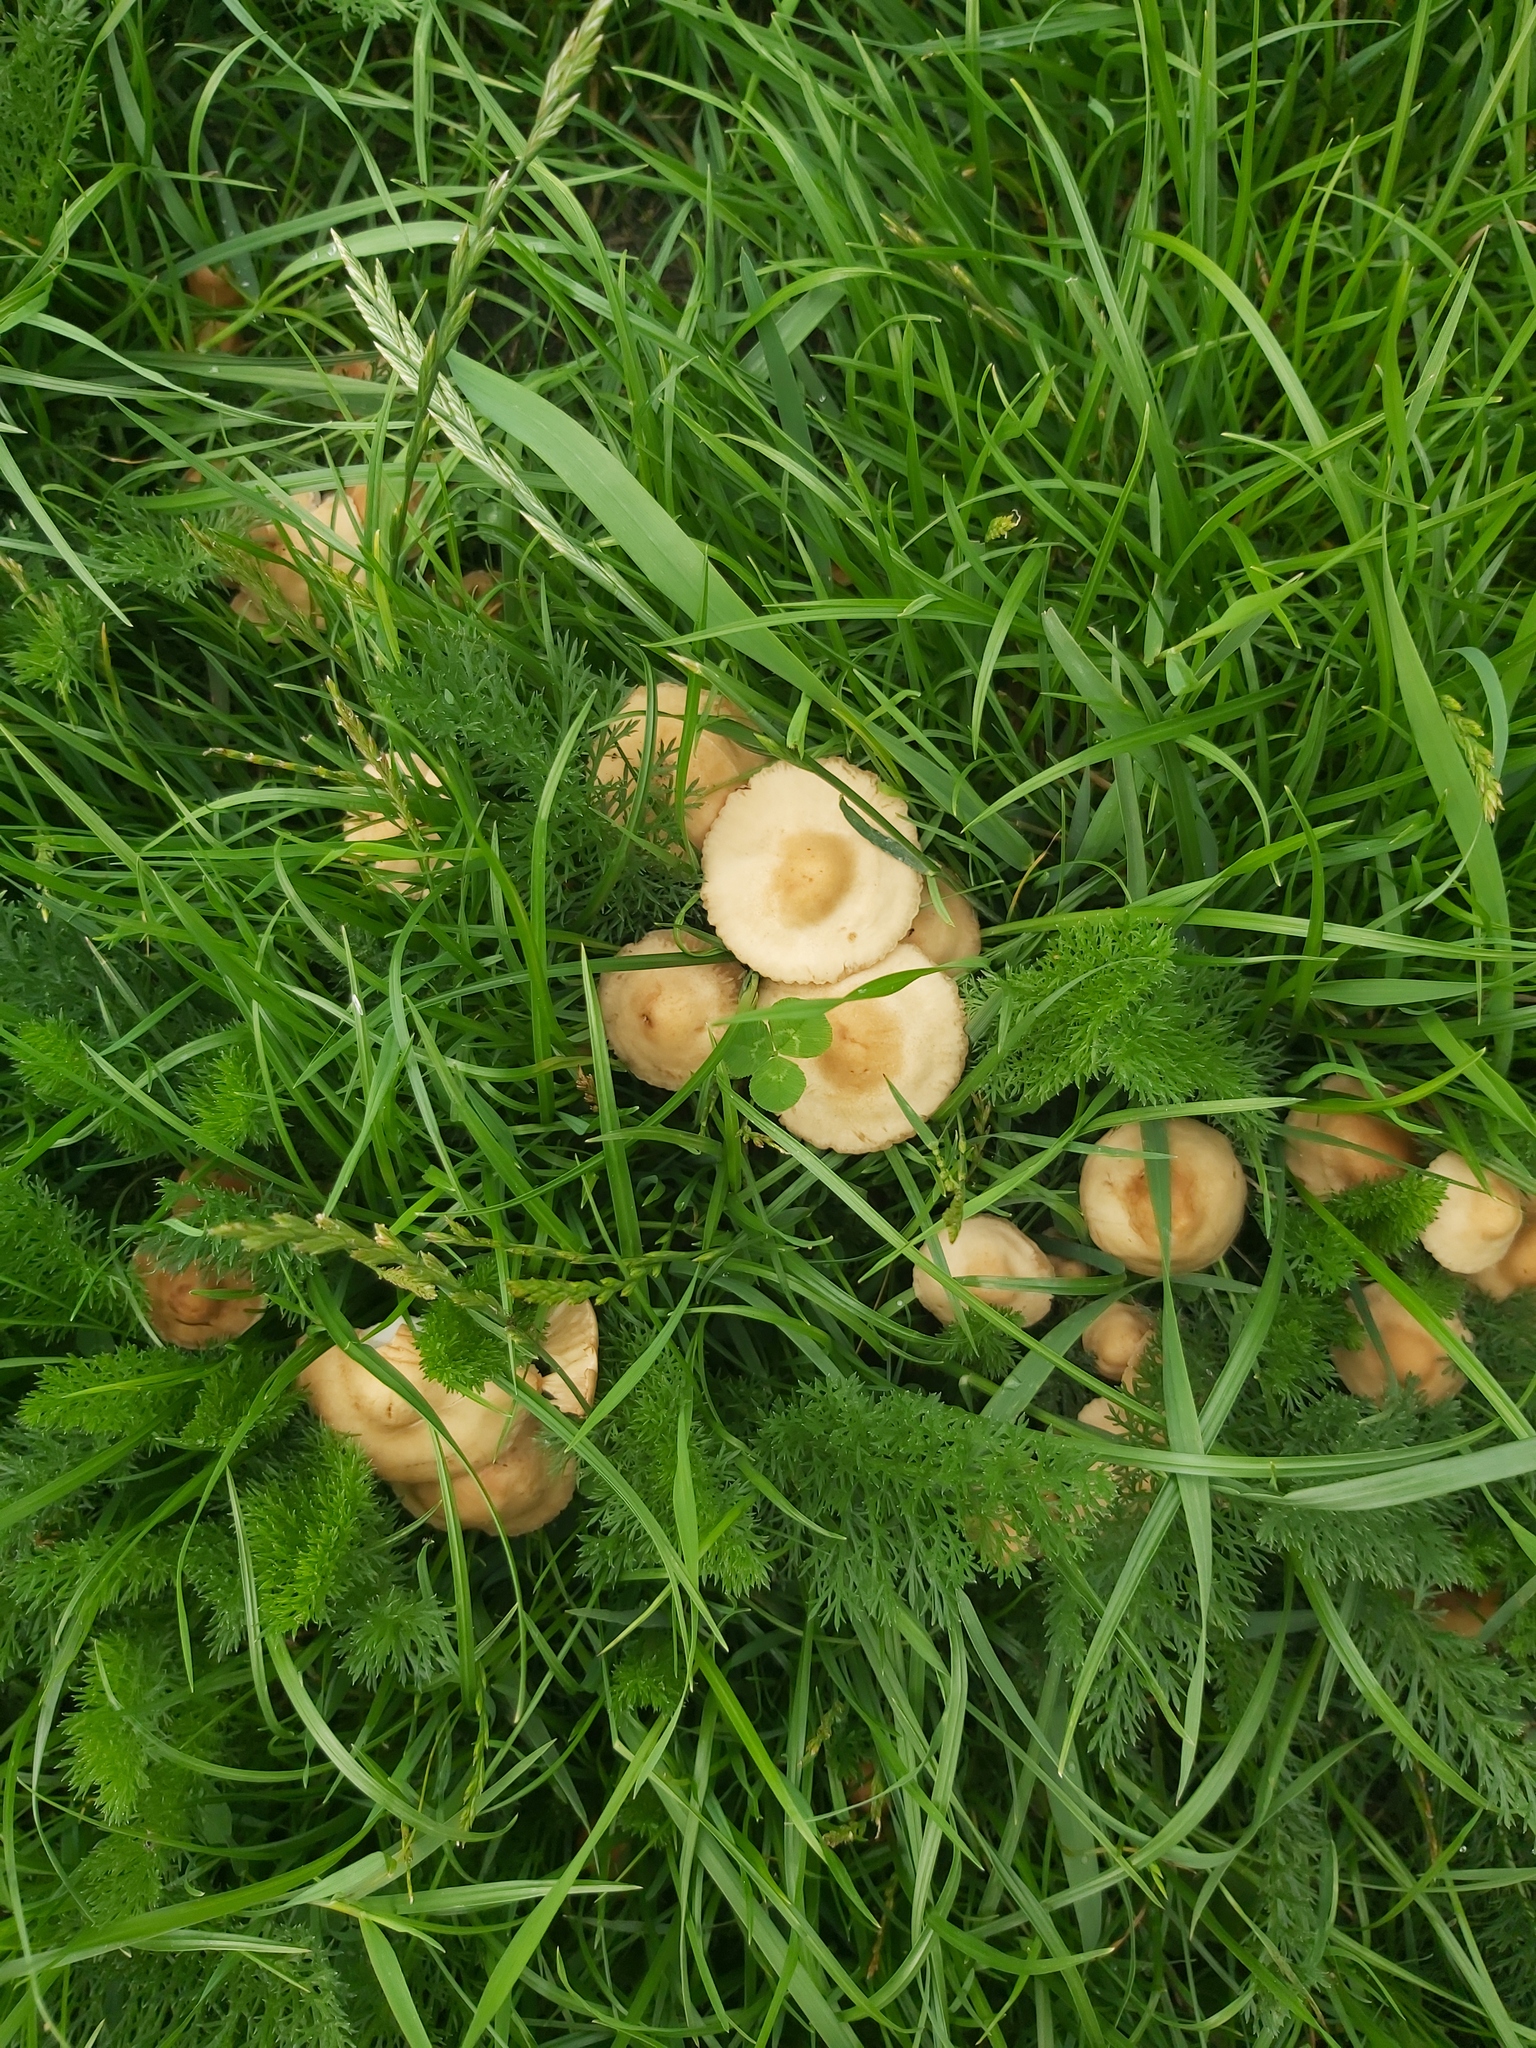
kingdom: Fungi
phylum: Basidiomycota
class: Agaricomycetes
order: Agaricales
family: Marasmiaceae
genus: Marasmius
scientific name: Marasmius oreades
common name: Fairy ring champignon
